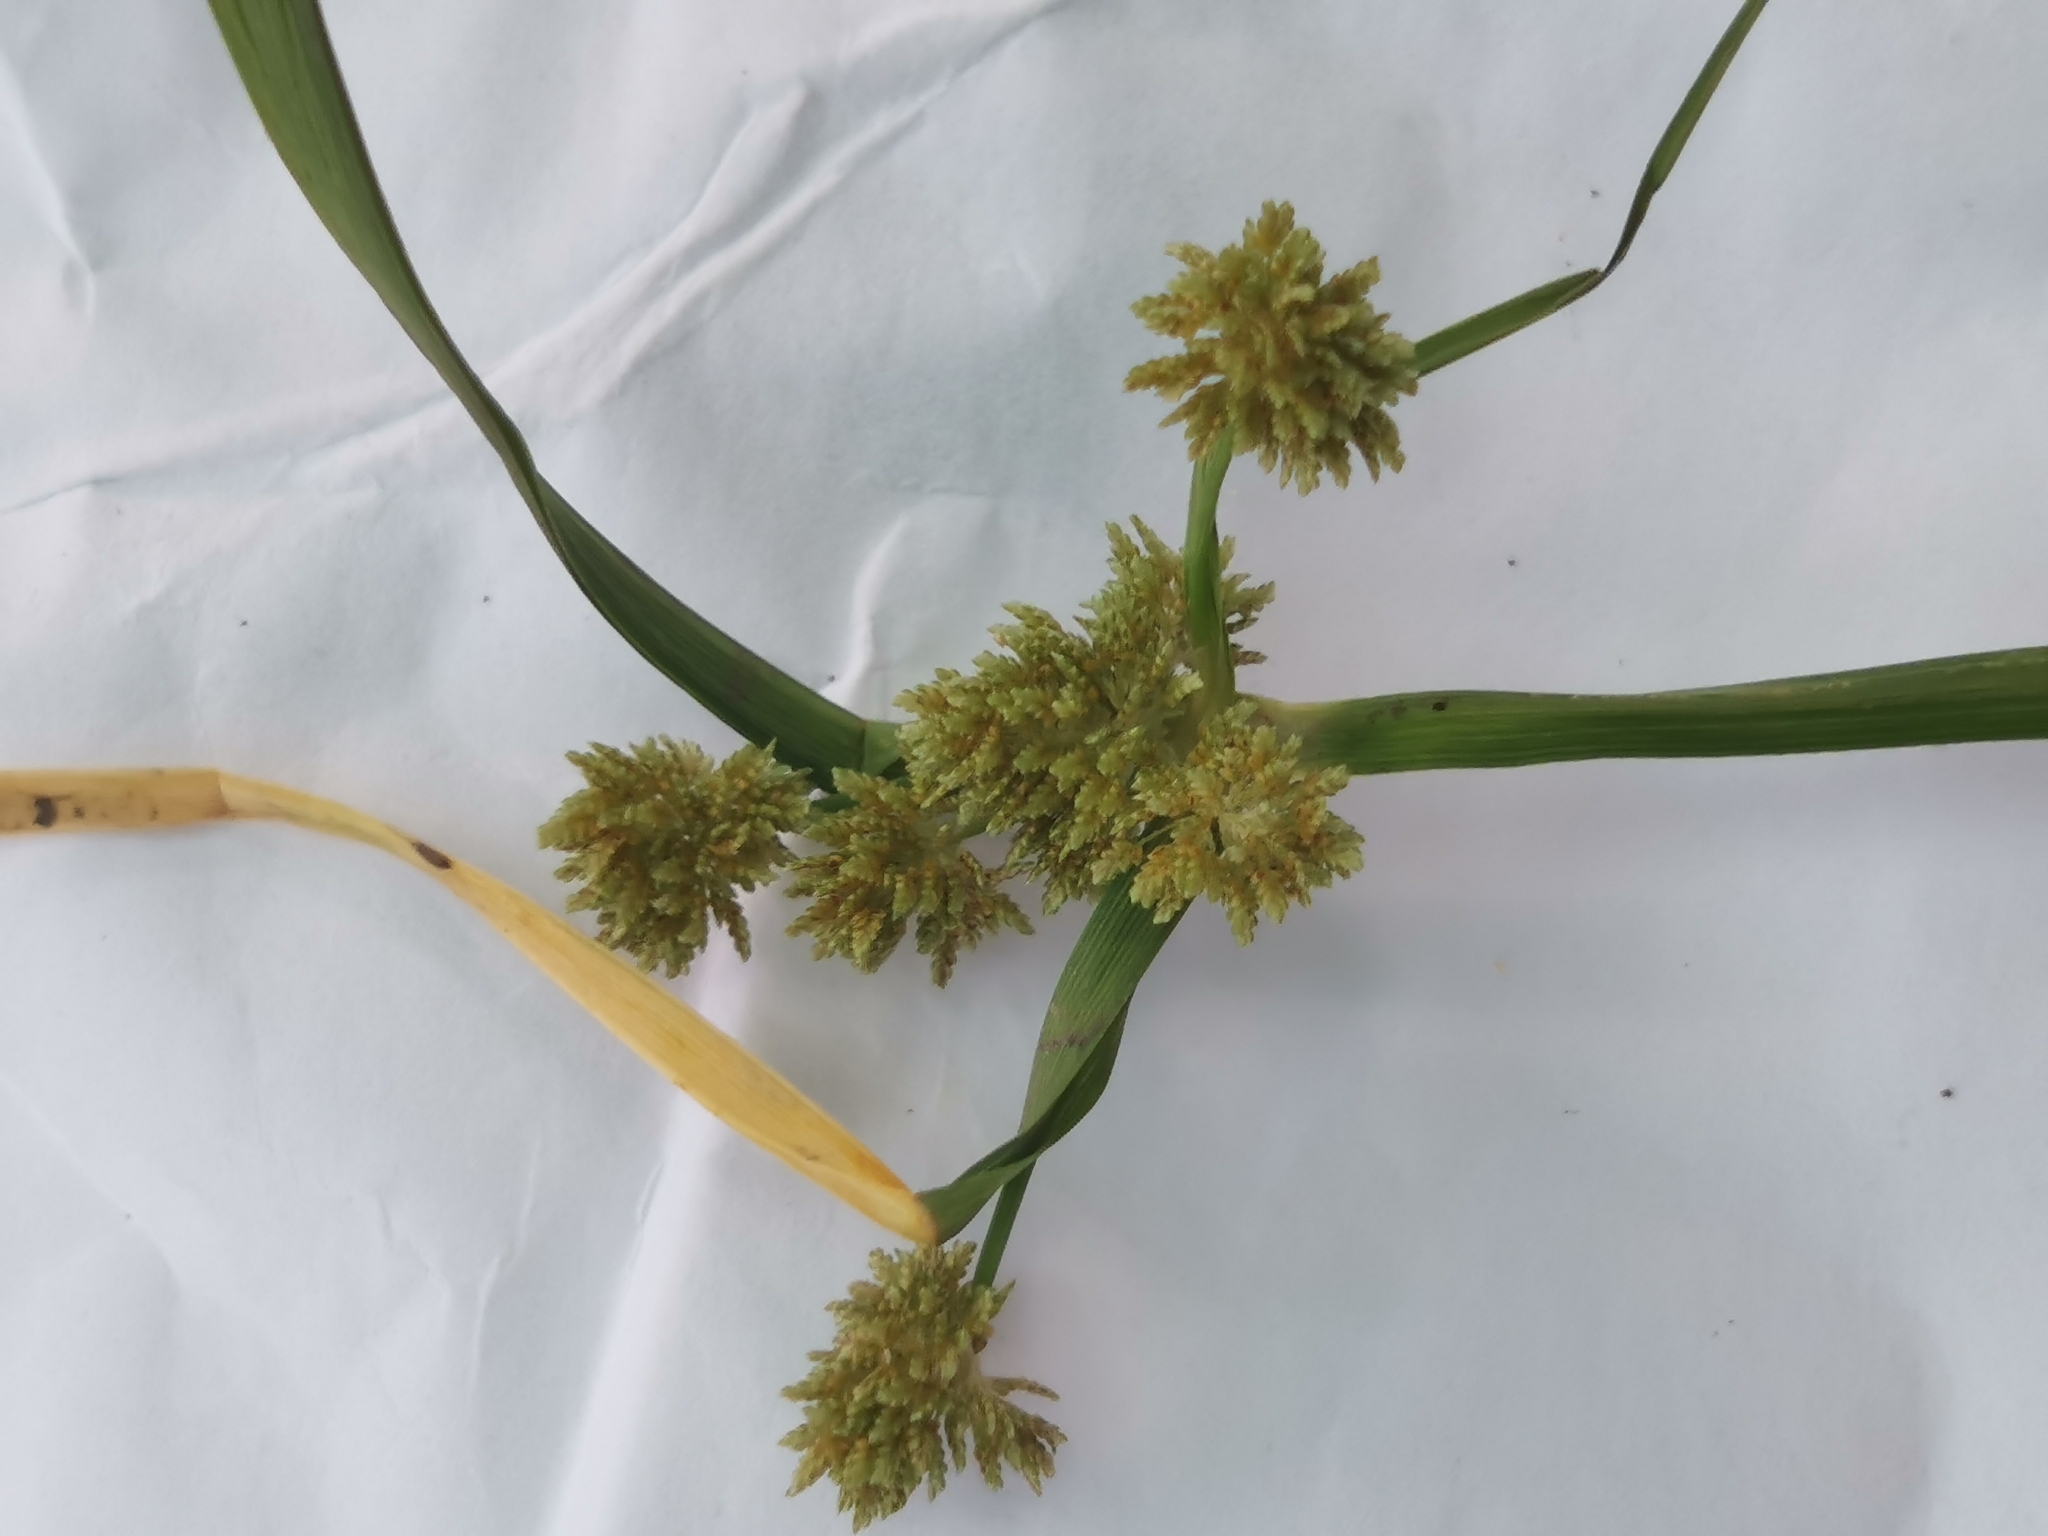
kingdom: Plantae
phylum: Tracheophyta
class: Liliopsida
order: Poales
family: Cyperaceae
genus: Cyperus
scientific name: Cyperus difformis
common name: Variable flatsedge
